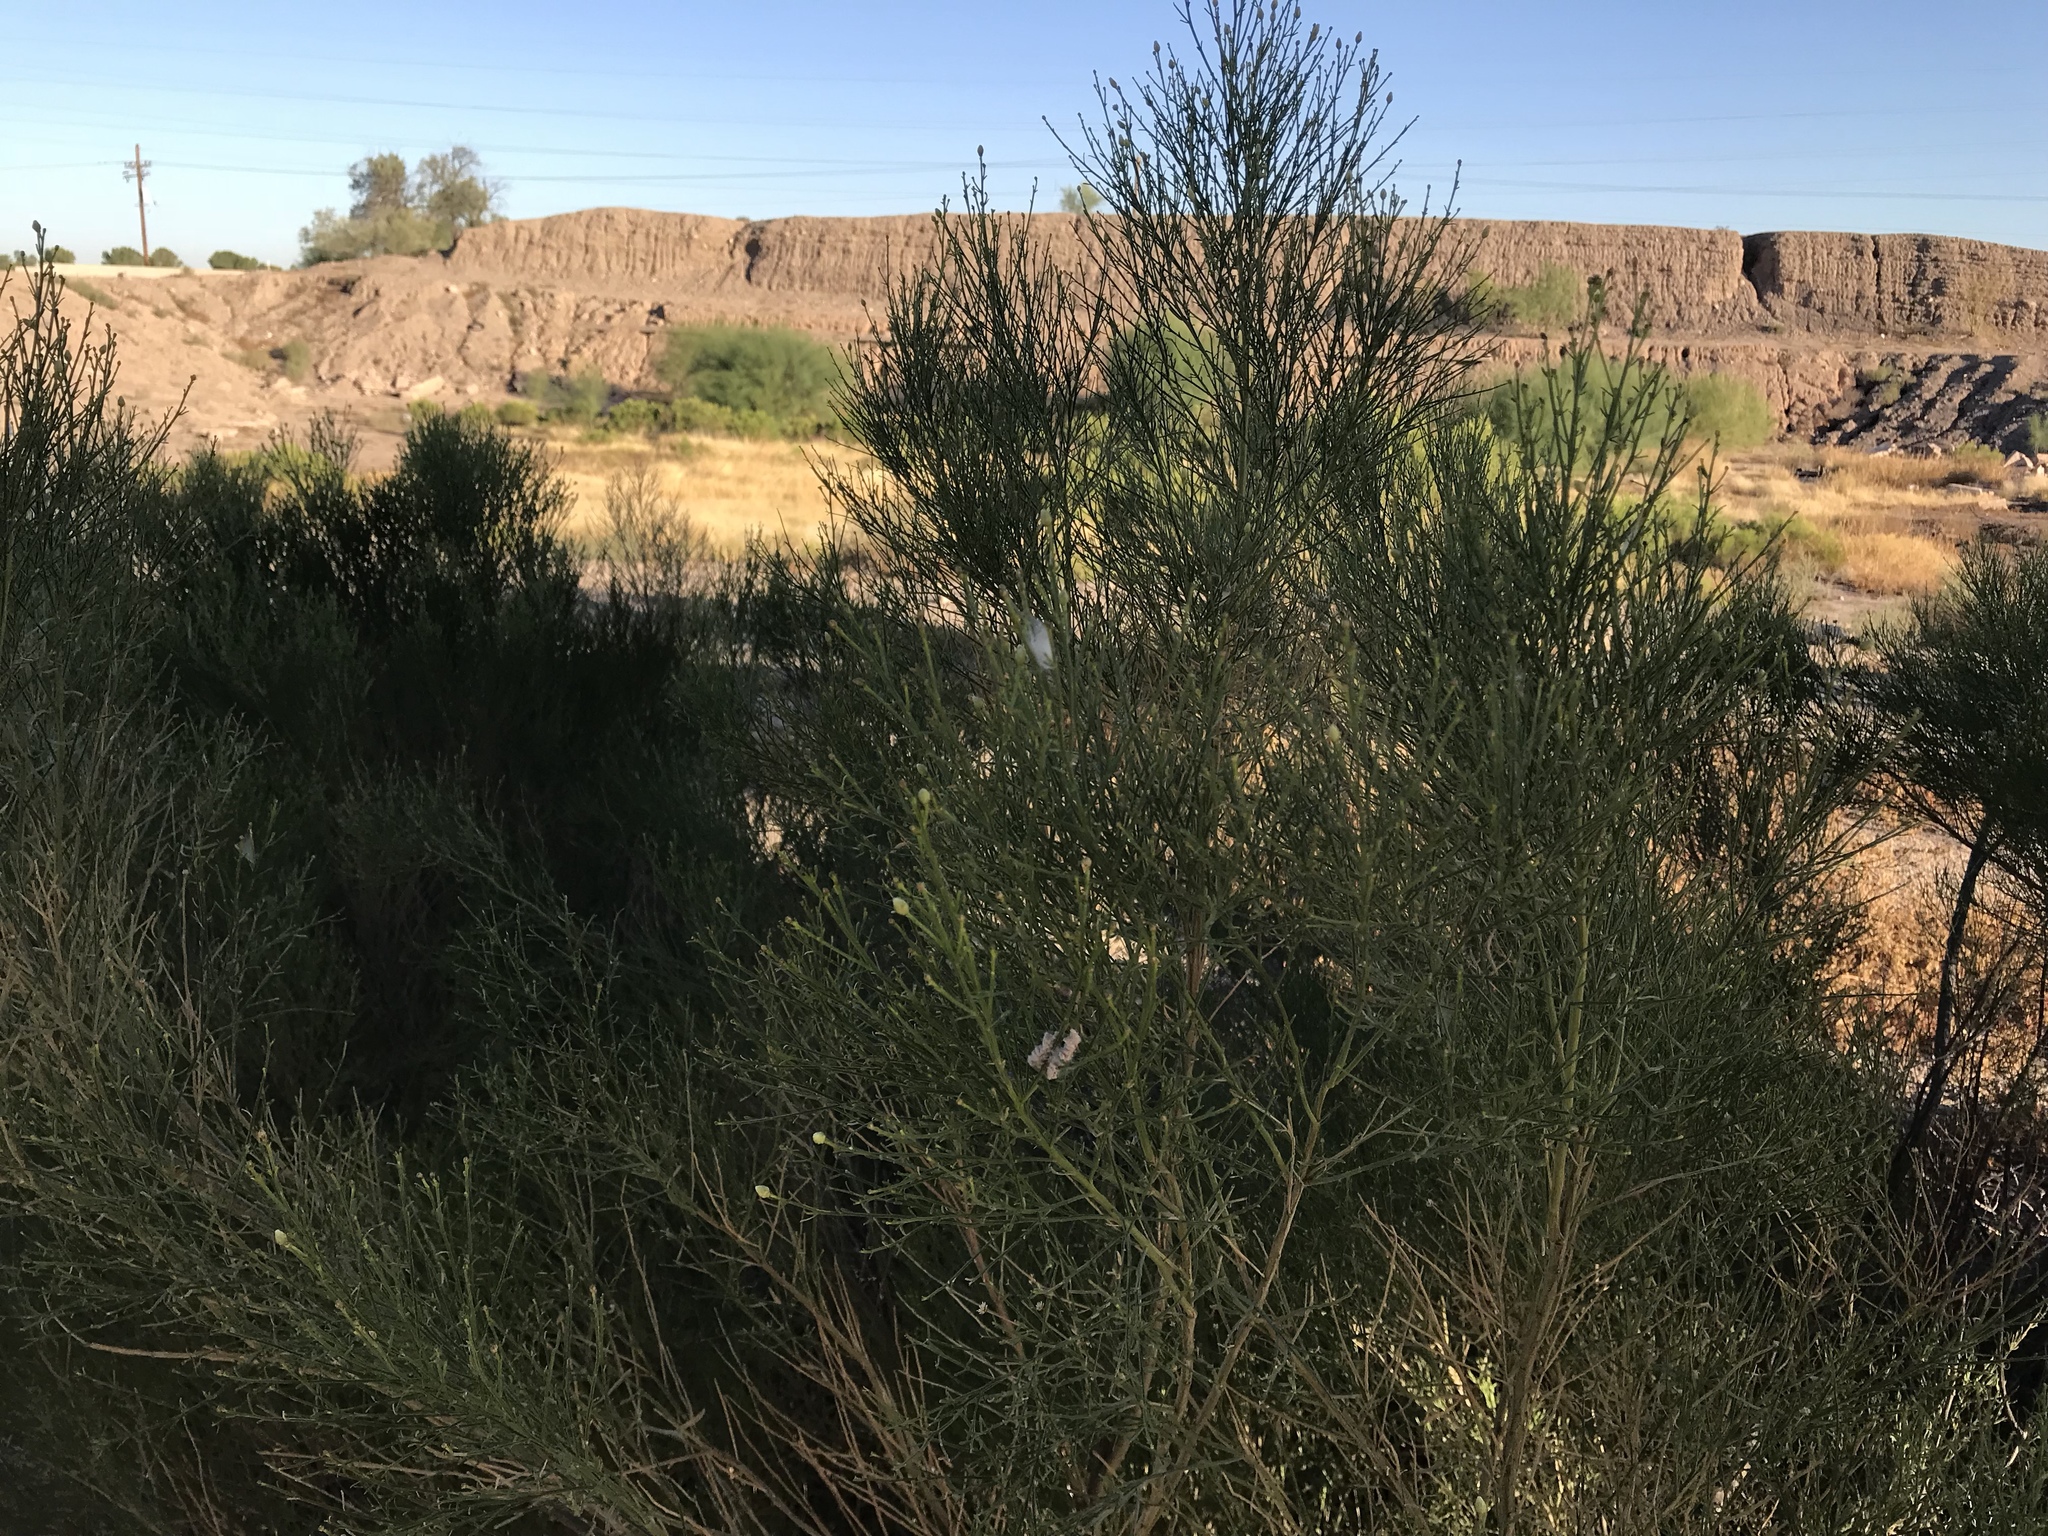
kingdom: Plantae
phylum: Tracheophyta
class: Magnoliopsida
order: Asterales
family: Asteraceae
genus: Baccharis
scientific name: Baccharis sarothroides
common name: Desert-broom
